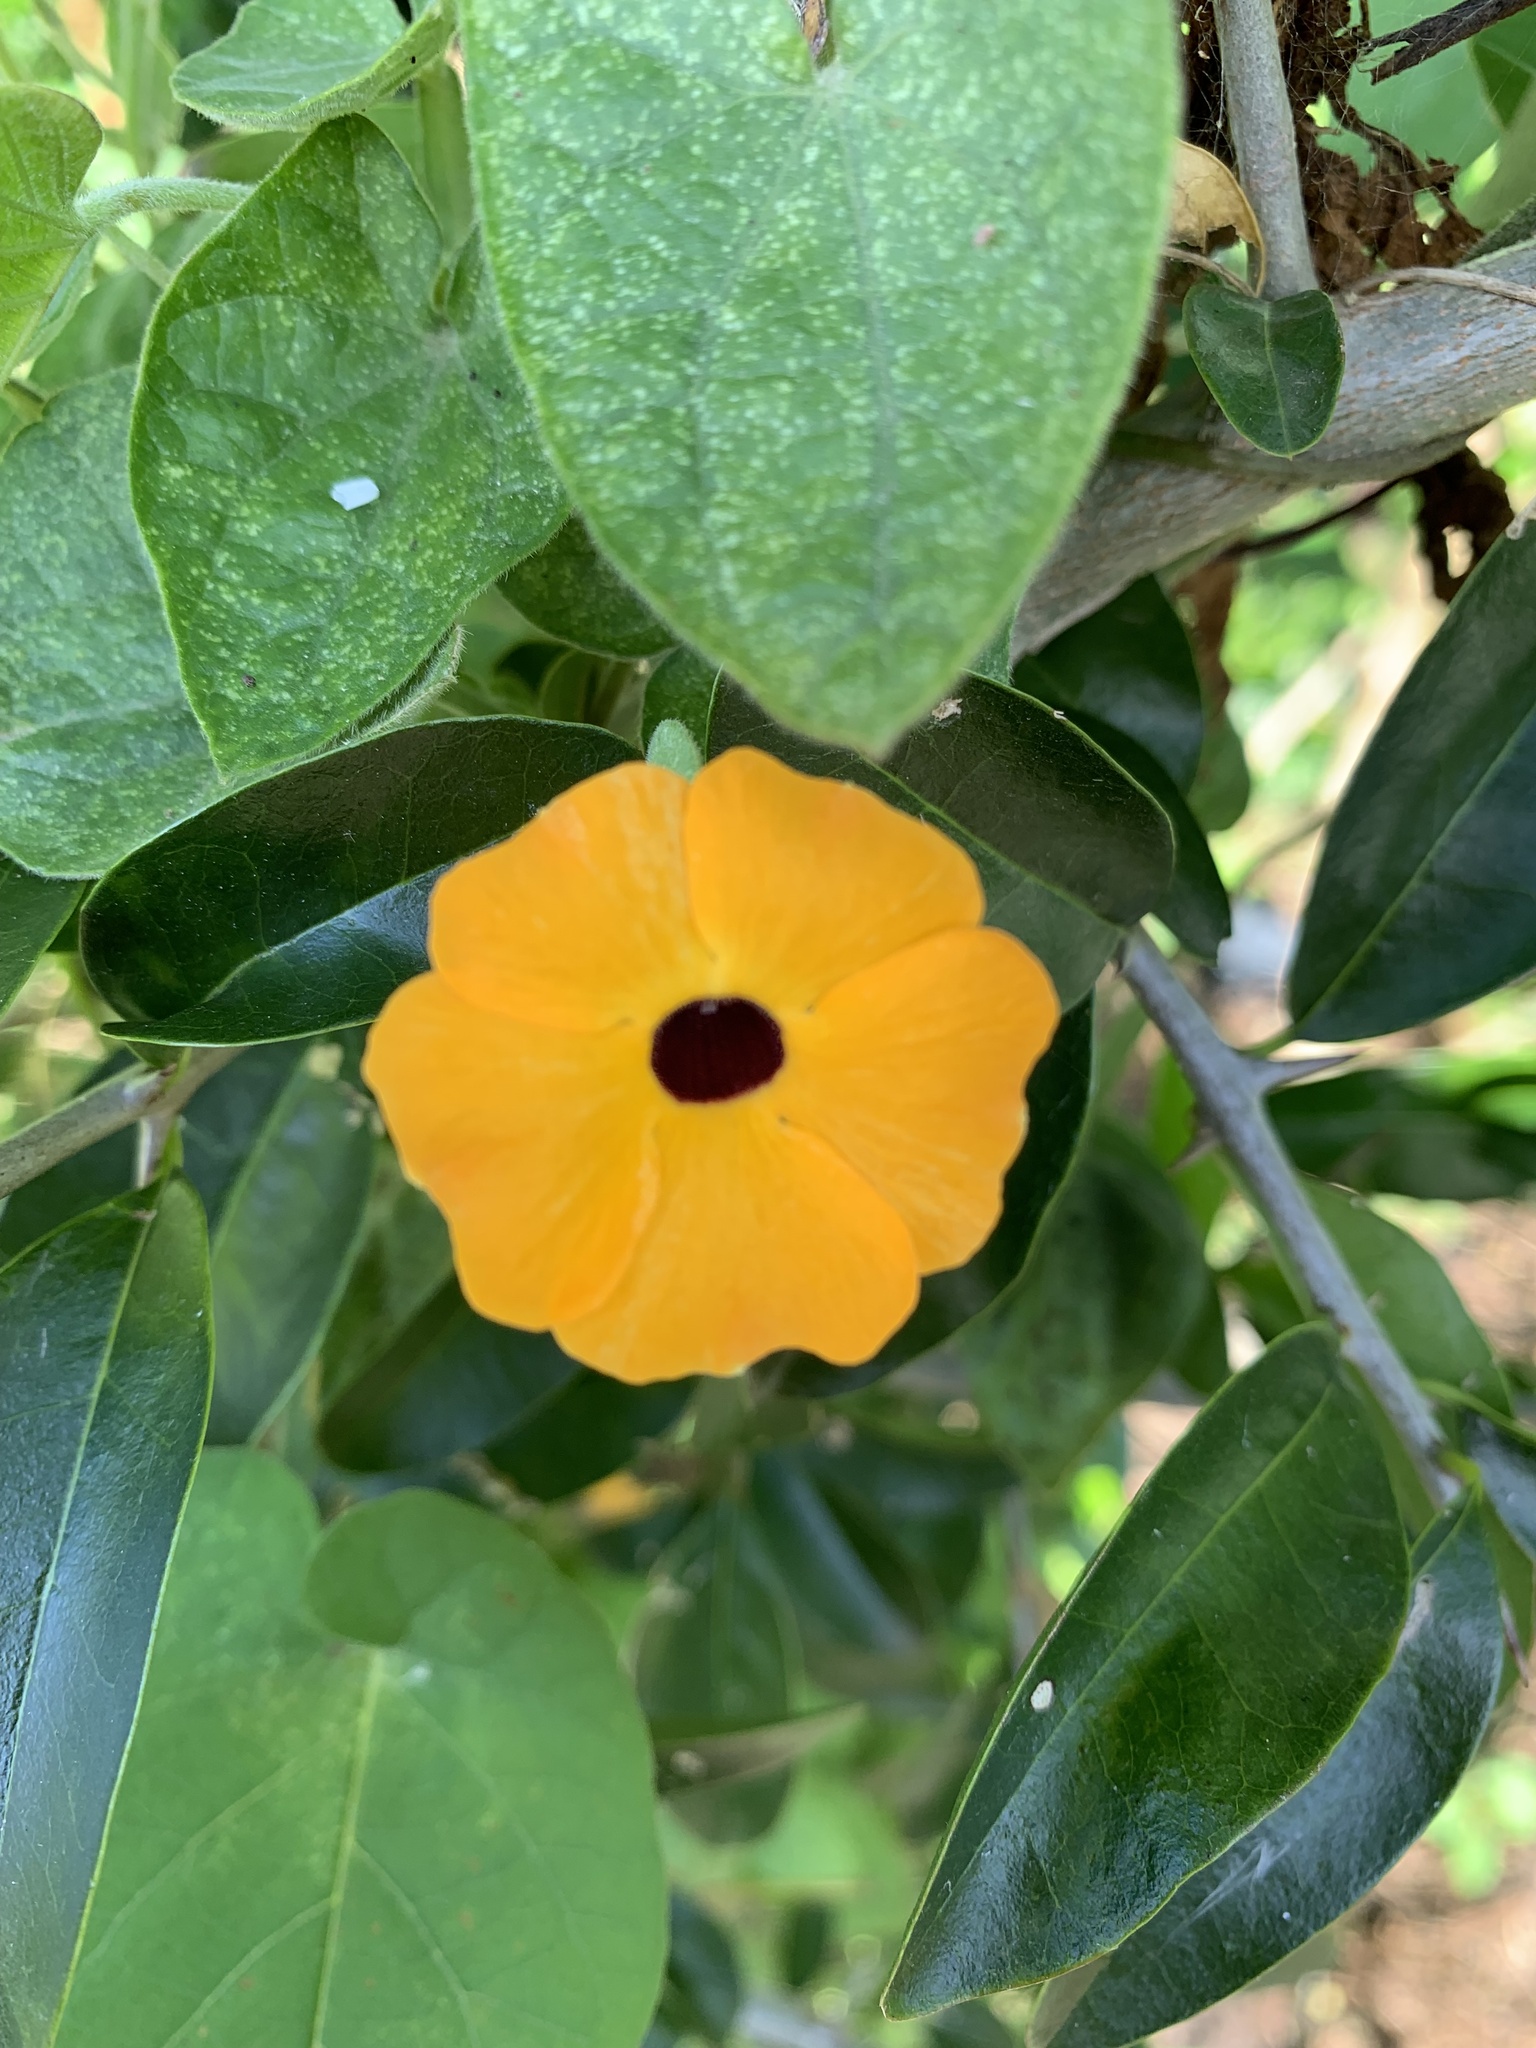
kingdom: Plantae
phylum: Tracheophyta
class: Magnoliopsida
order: Lamiales
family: Acanthaceae
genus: Thunbergia
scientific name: Thunbergia alata
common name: Blackeyed susan vine
